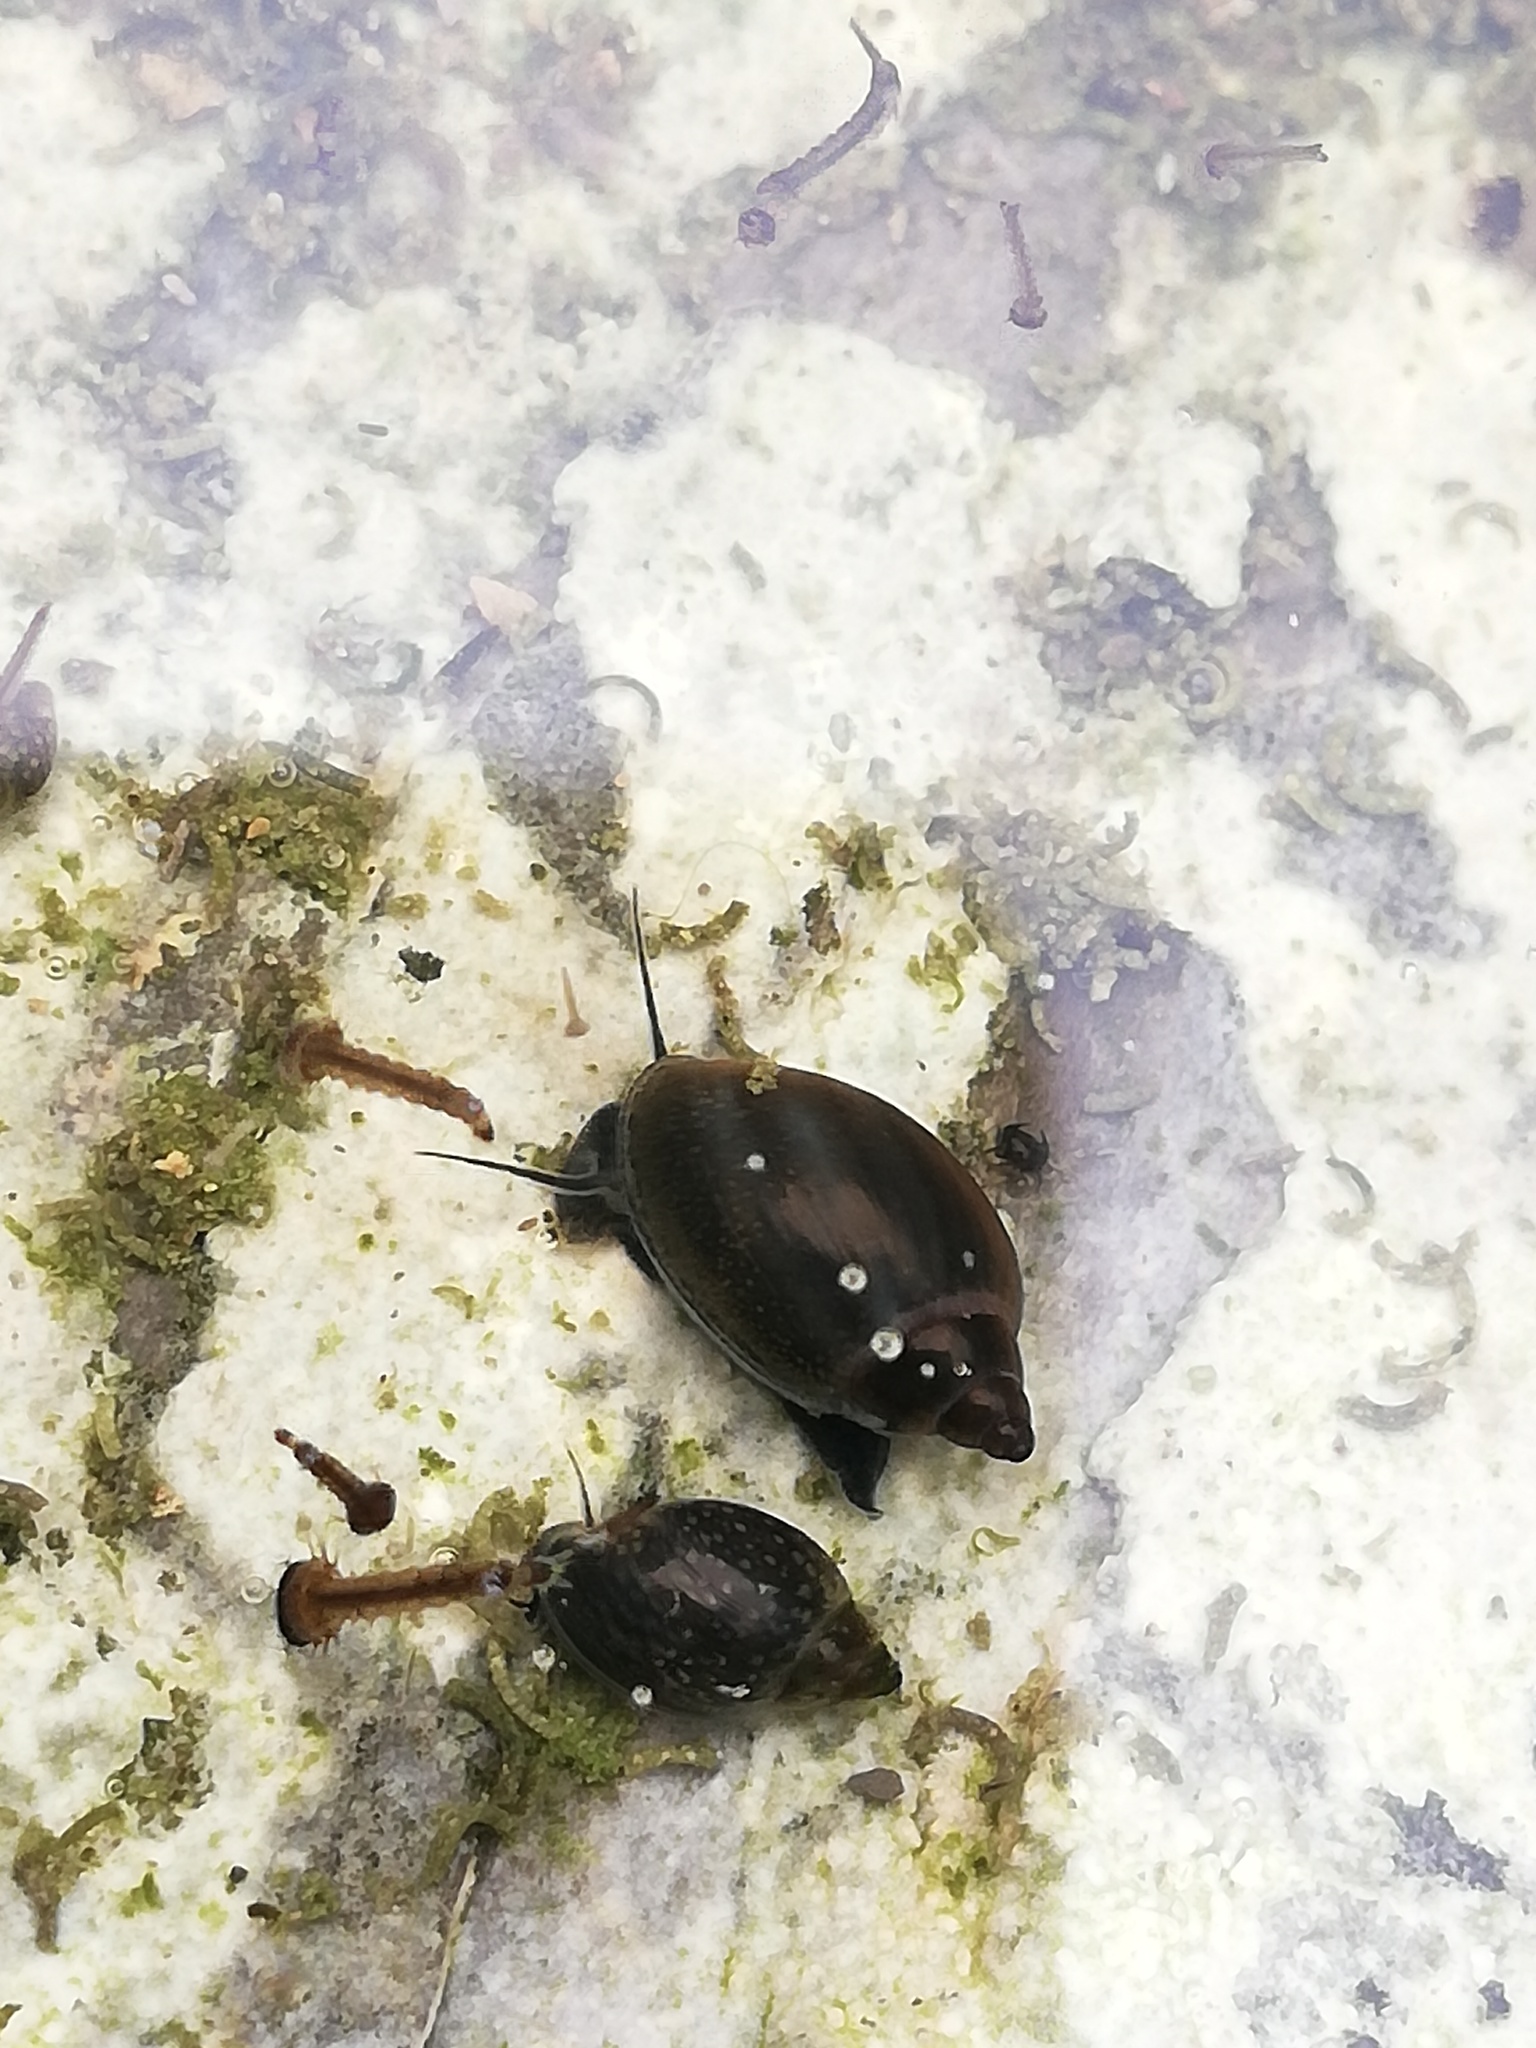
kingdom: Animalia
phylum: Mollusca
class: Gastropoda
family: Physidae
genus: Physella
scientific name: Physella acuta
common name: European physa
